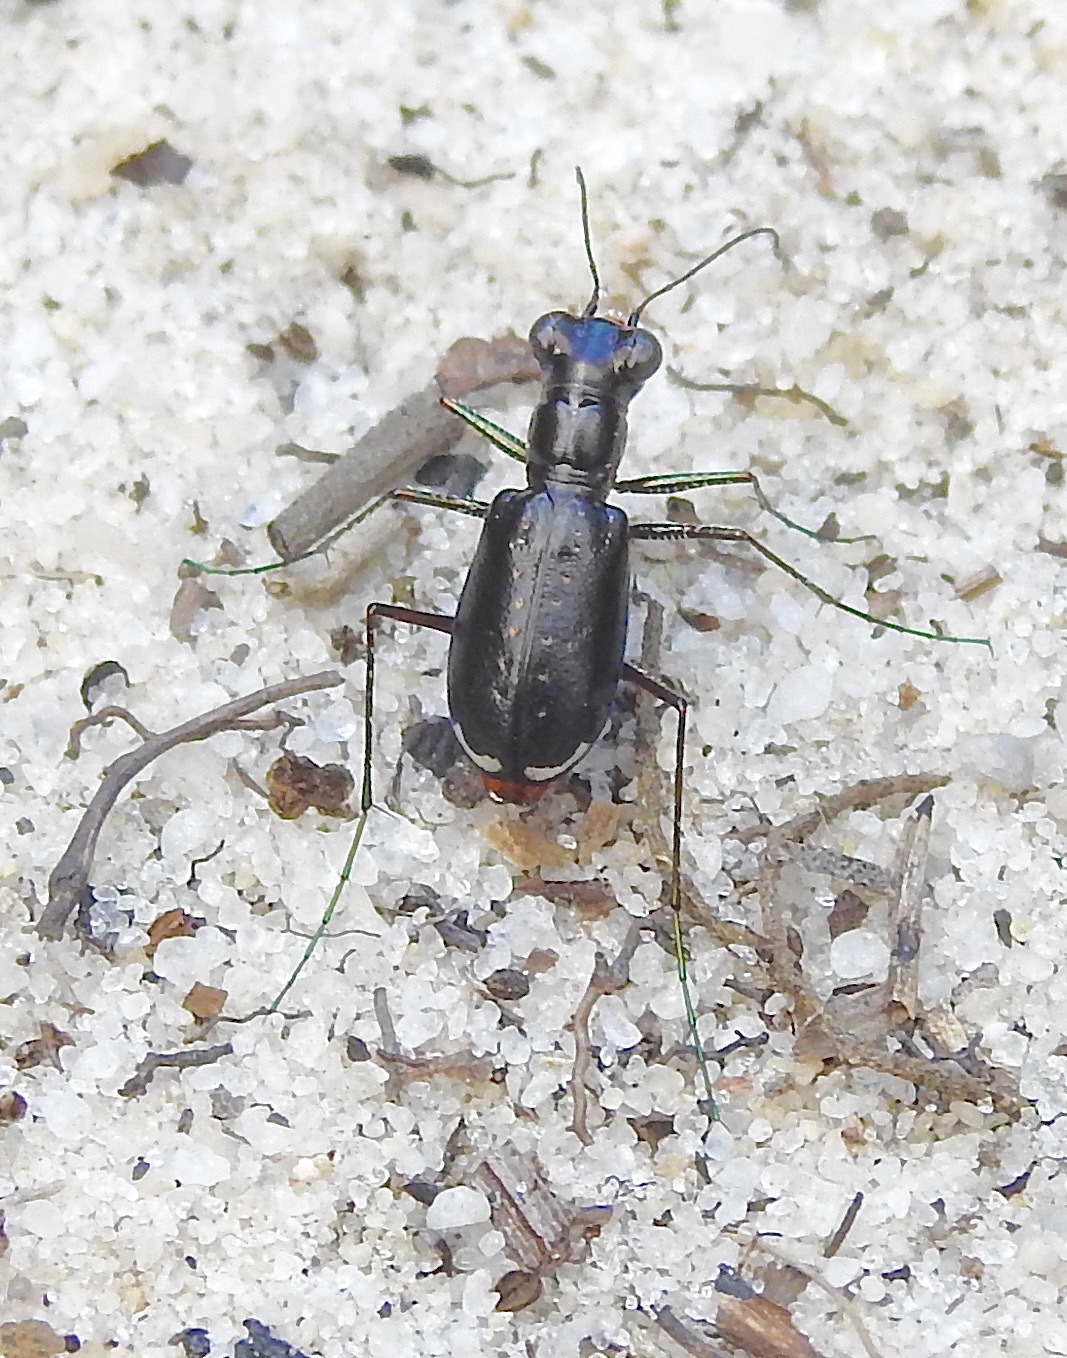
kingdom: Animalia
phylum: Arthropoda
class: Insecta
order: Coleoptera
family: Carabidae
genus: Cicindela
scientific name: Cicindela scabrosa
